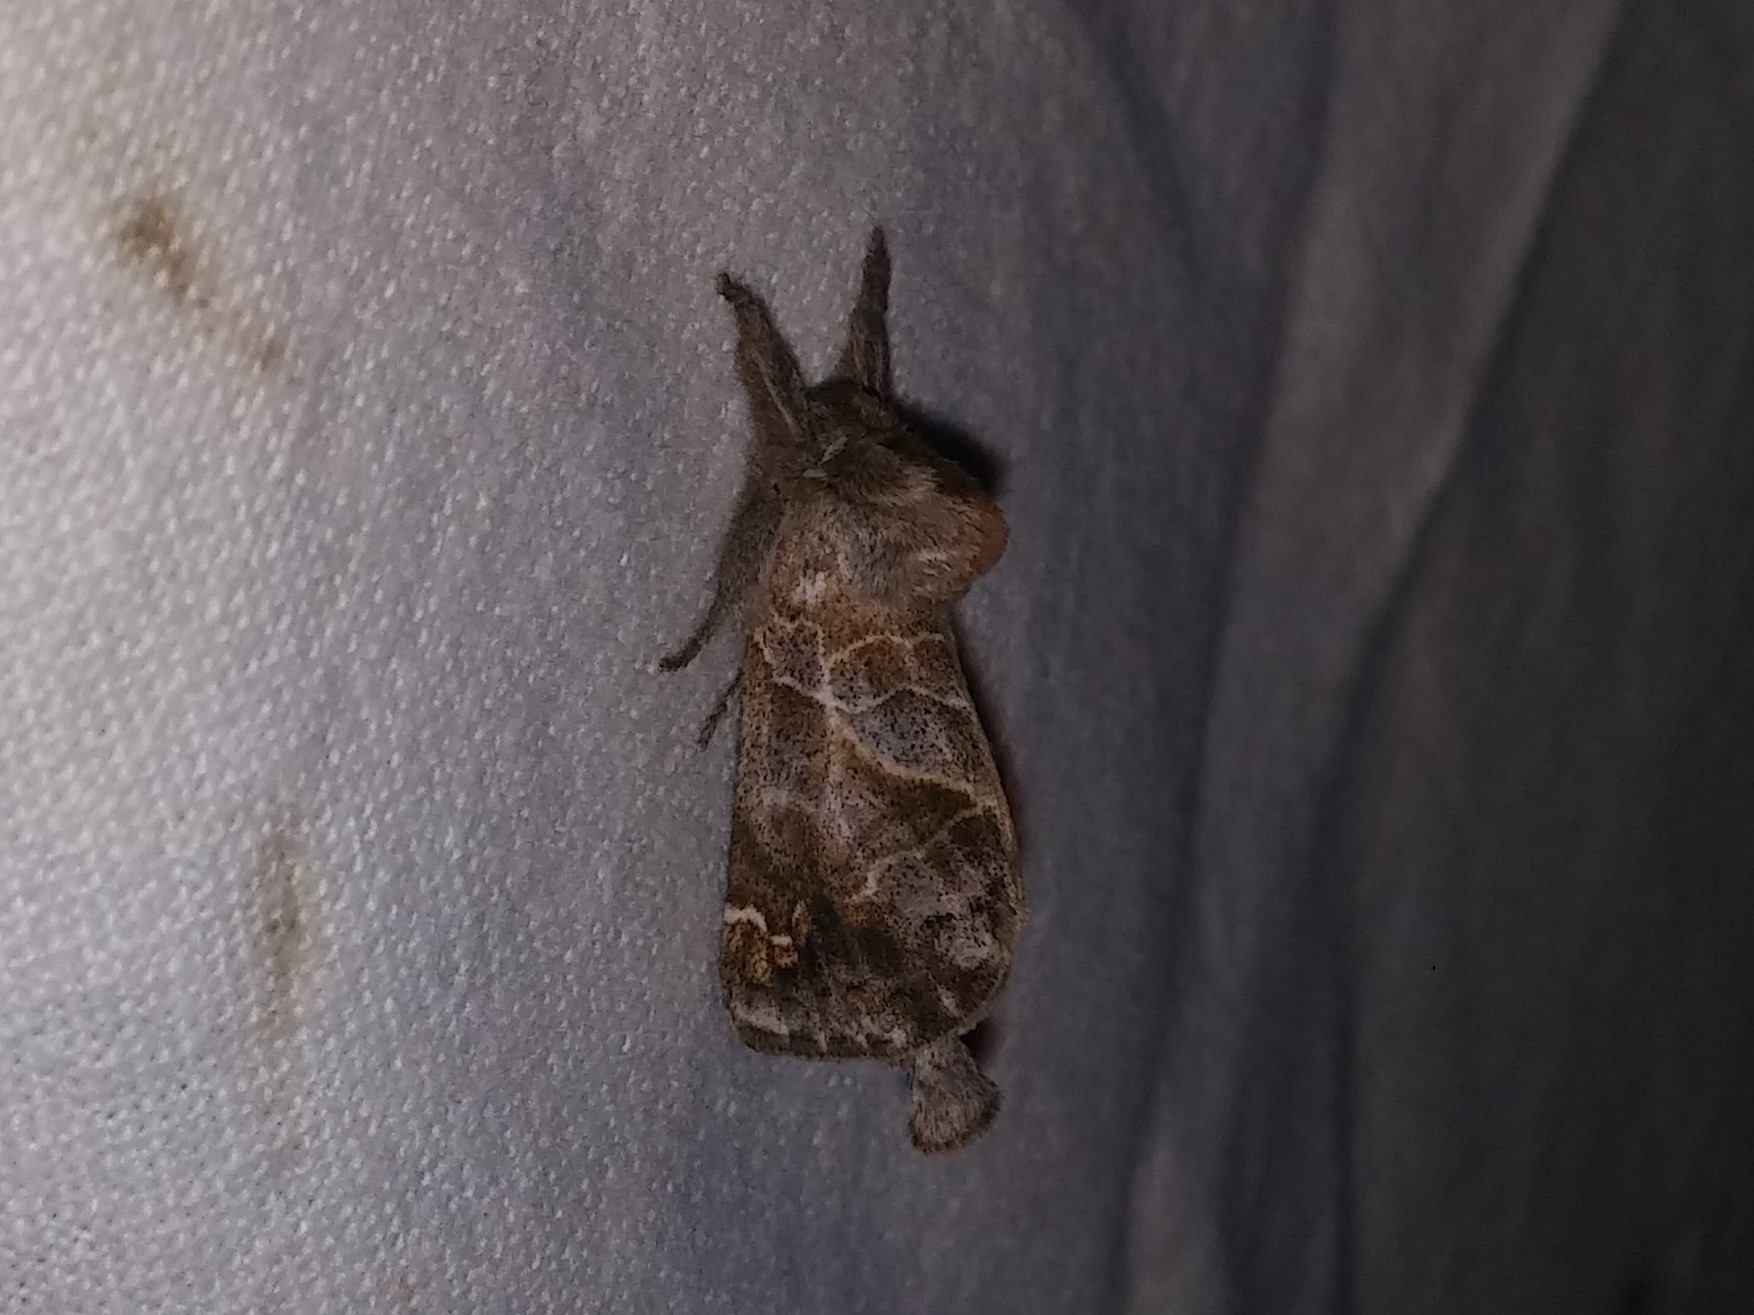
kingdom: Animalia
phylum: Arthropoda
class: Insecta
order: Lepidoptera
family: Notodontidae
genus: Clostera
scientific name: Clostera strigosa
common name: Striped chocolate-tip moth
